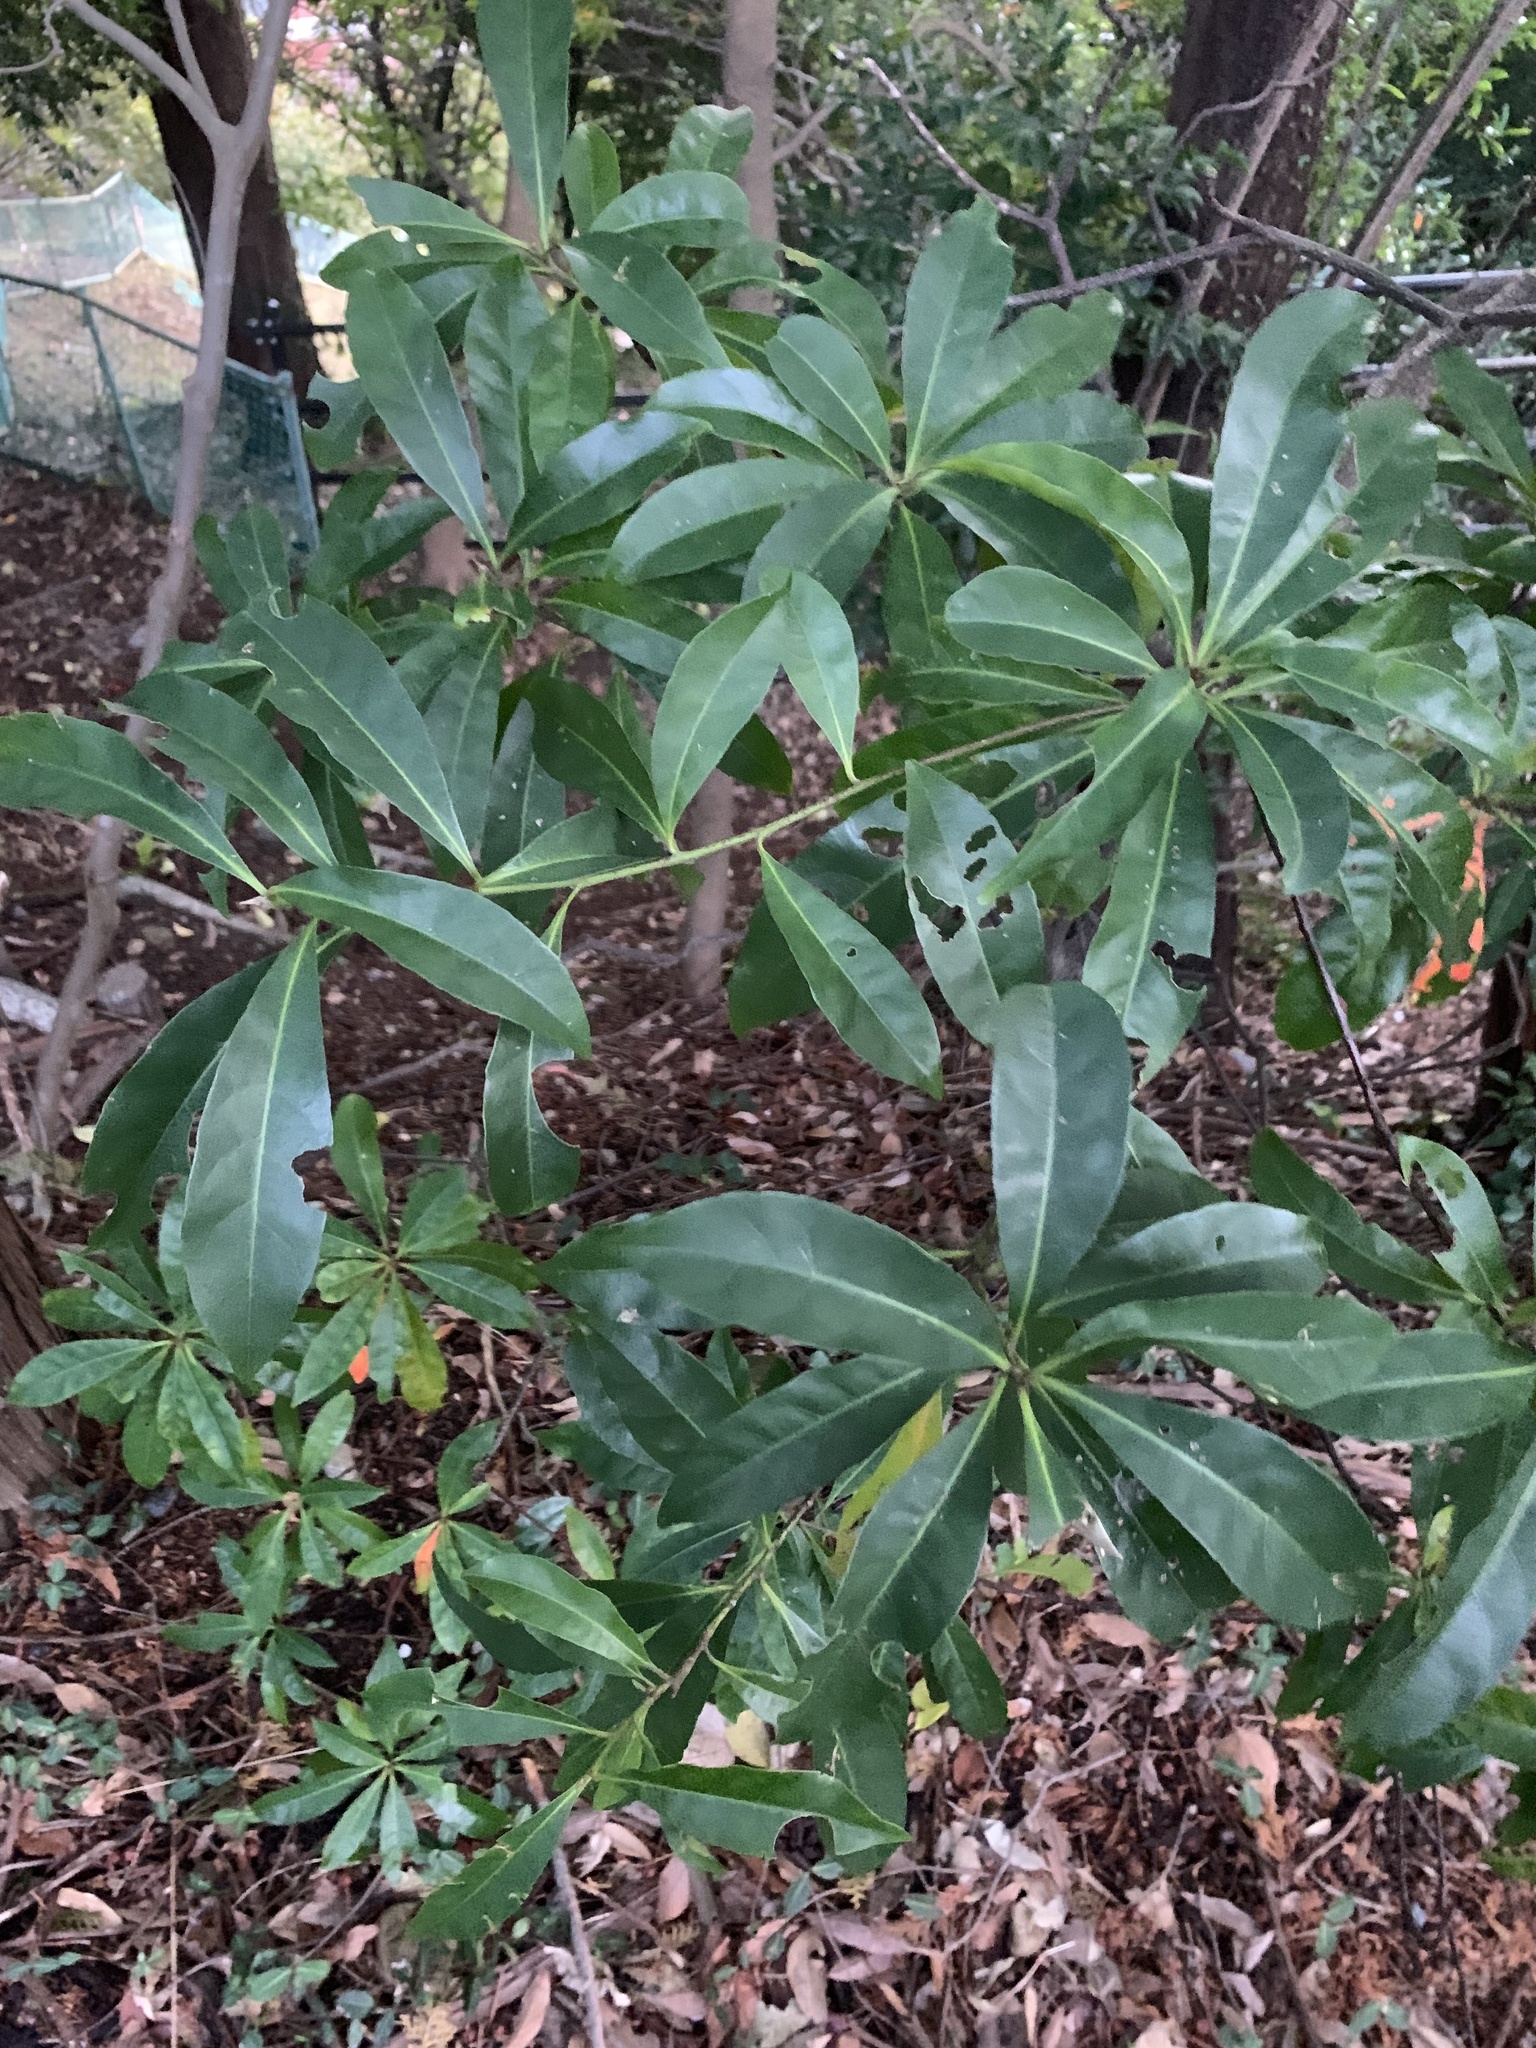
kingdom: Plantae
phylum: Tracheophyta
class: Magnoliopsida
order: Oxalidales
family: Elaeocarpaceae
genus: Elaeocarpus
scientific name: Elaeocarpus decipiens
